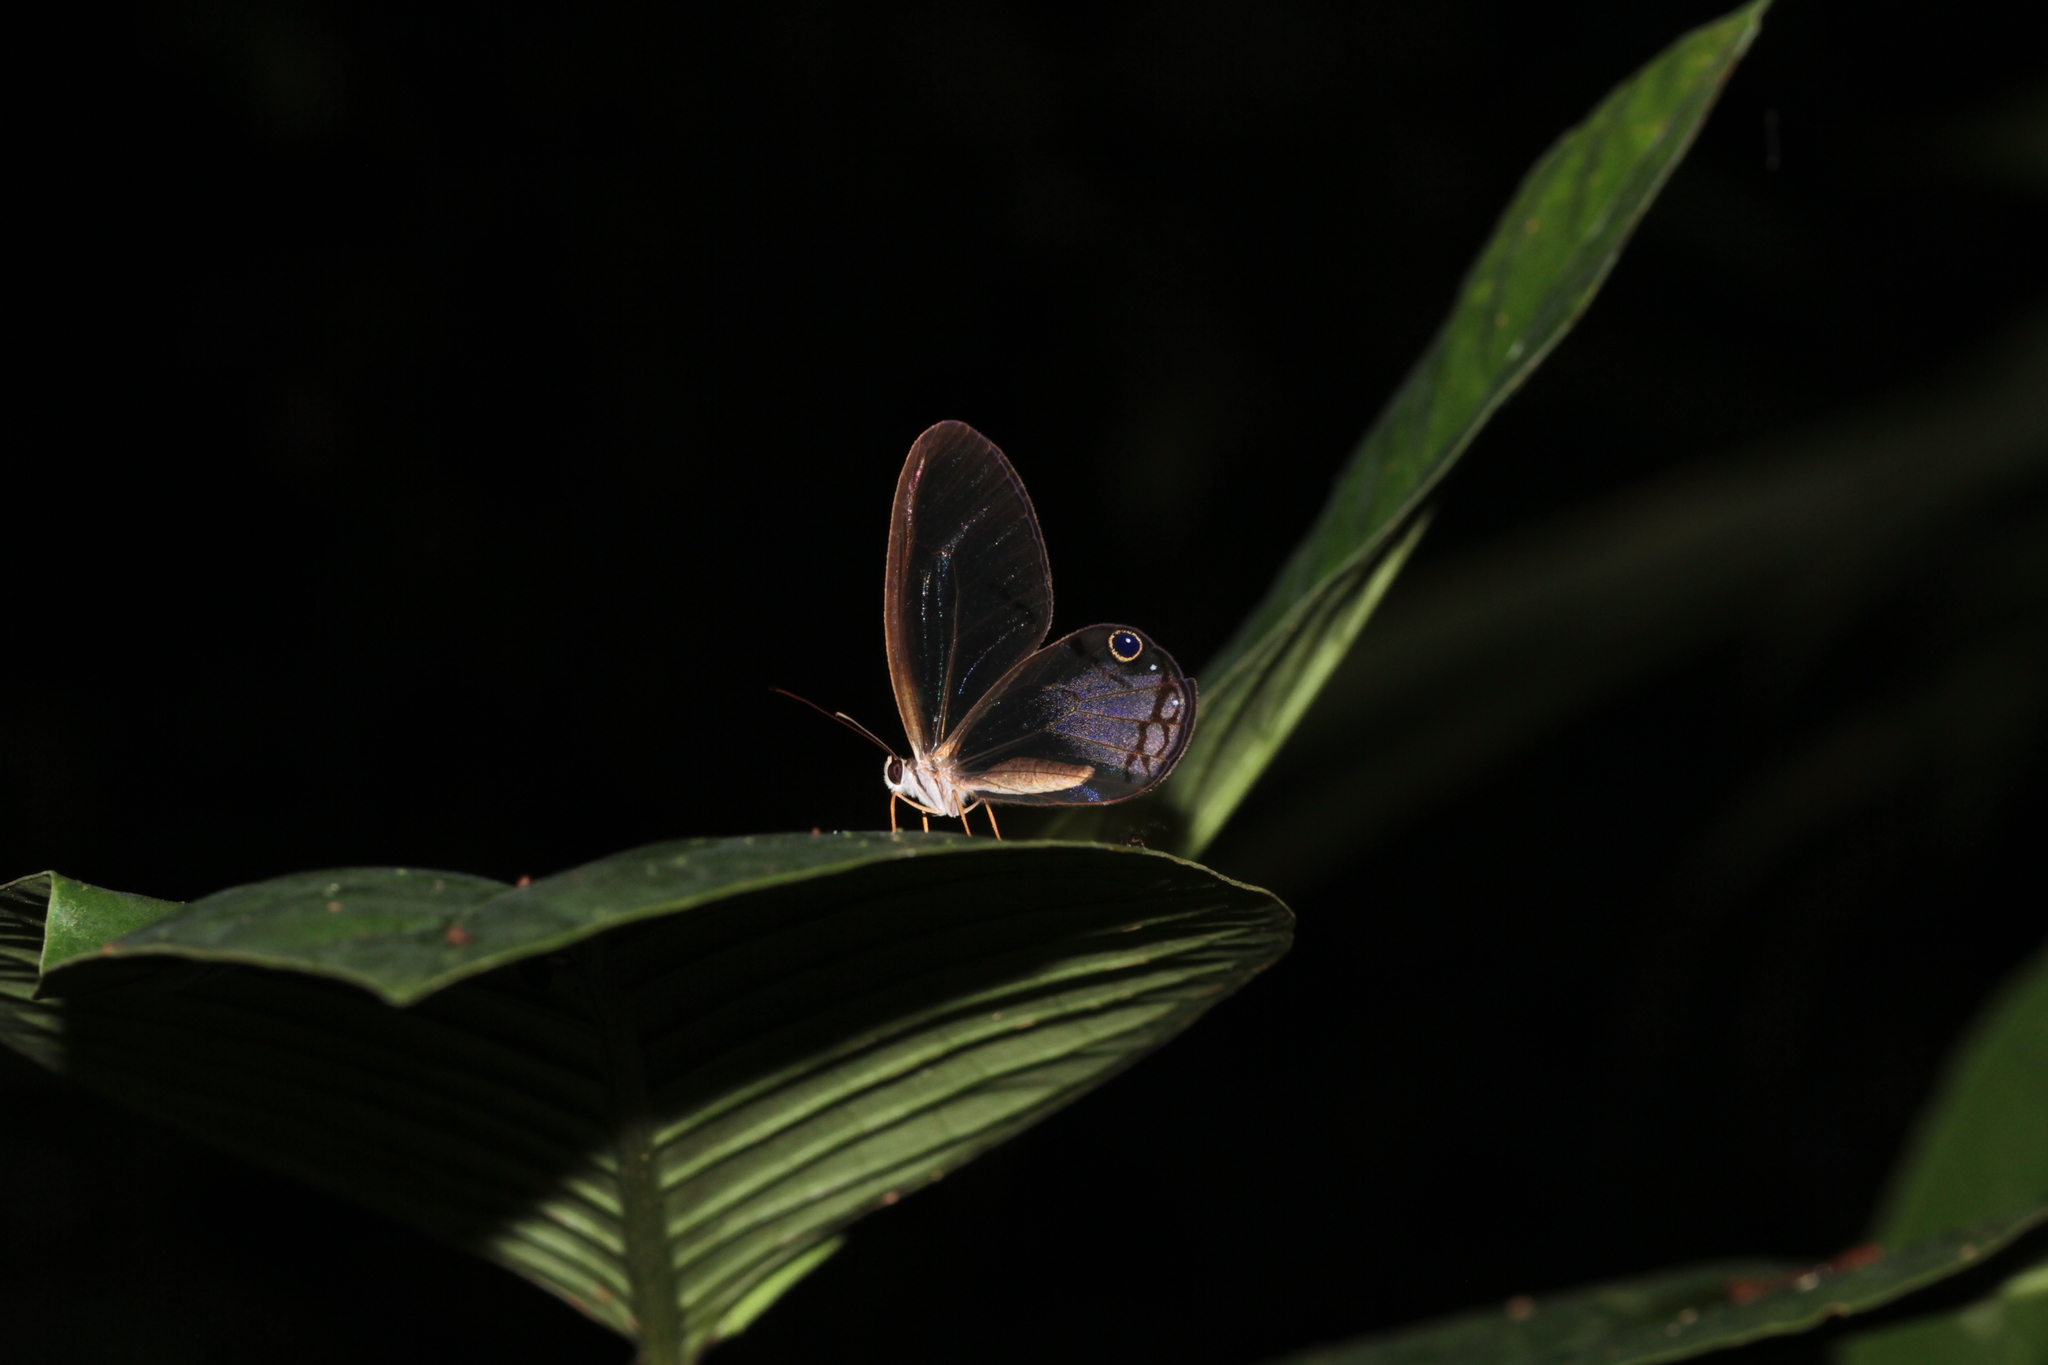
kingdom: Animalia
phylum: Arthropoda
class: Insecta
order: Lepidoptera
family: Nymphalidae
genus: Cithaerias
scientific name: Cithaerias pireta
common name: Rusted clearwing-satyr
